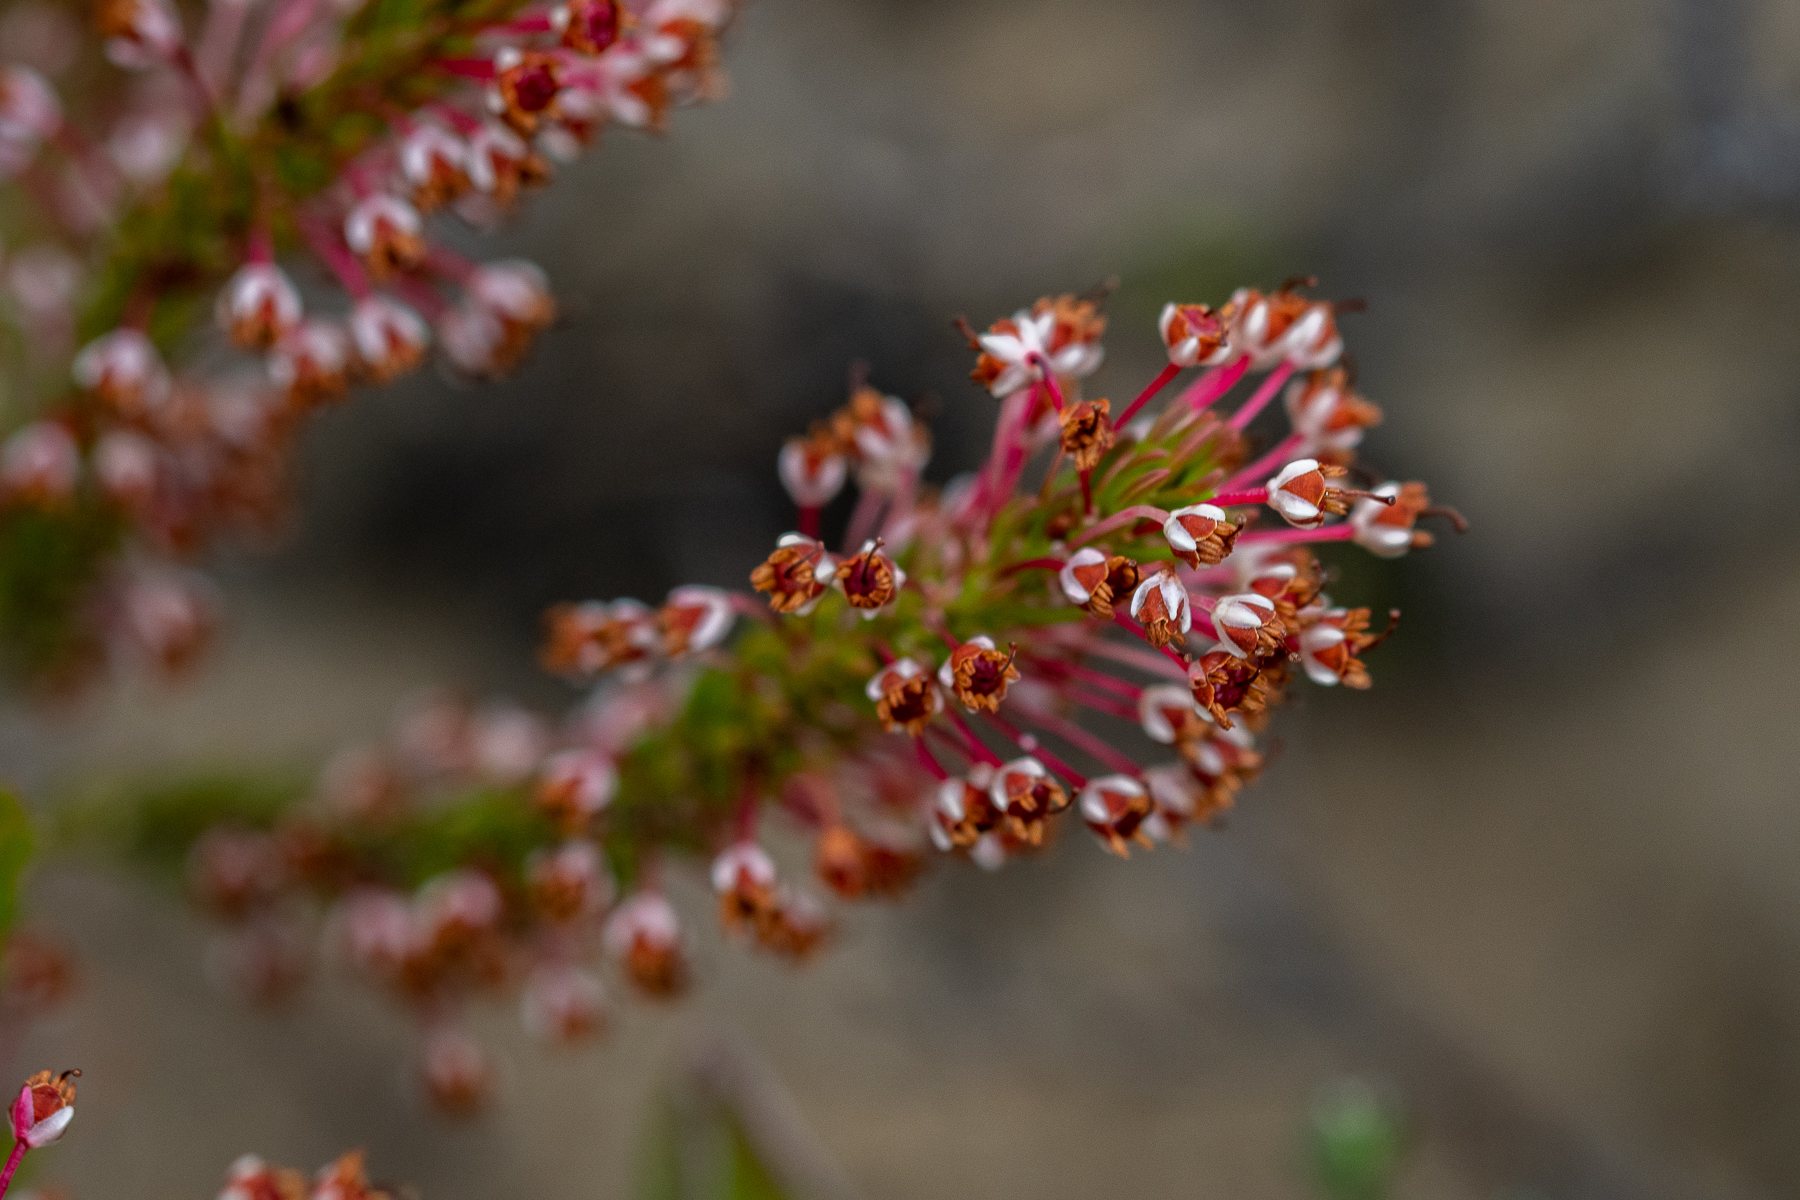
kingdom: Plantae
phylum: Tracheophyta
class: Magnoliopsida
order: Ericales
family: Ericaceae
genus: Erica
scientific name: Erica rubiginosa
